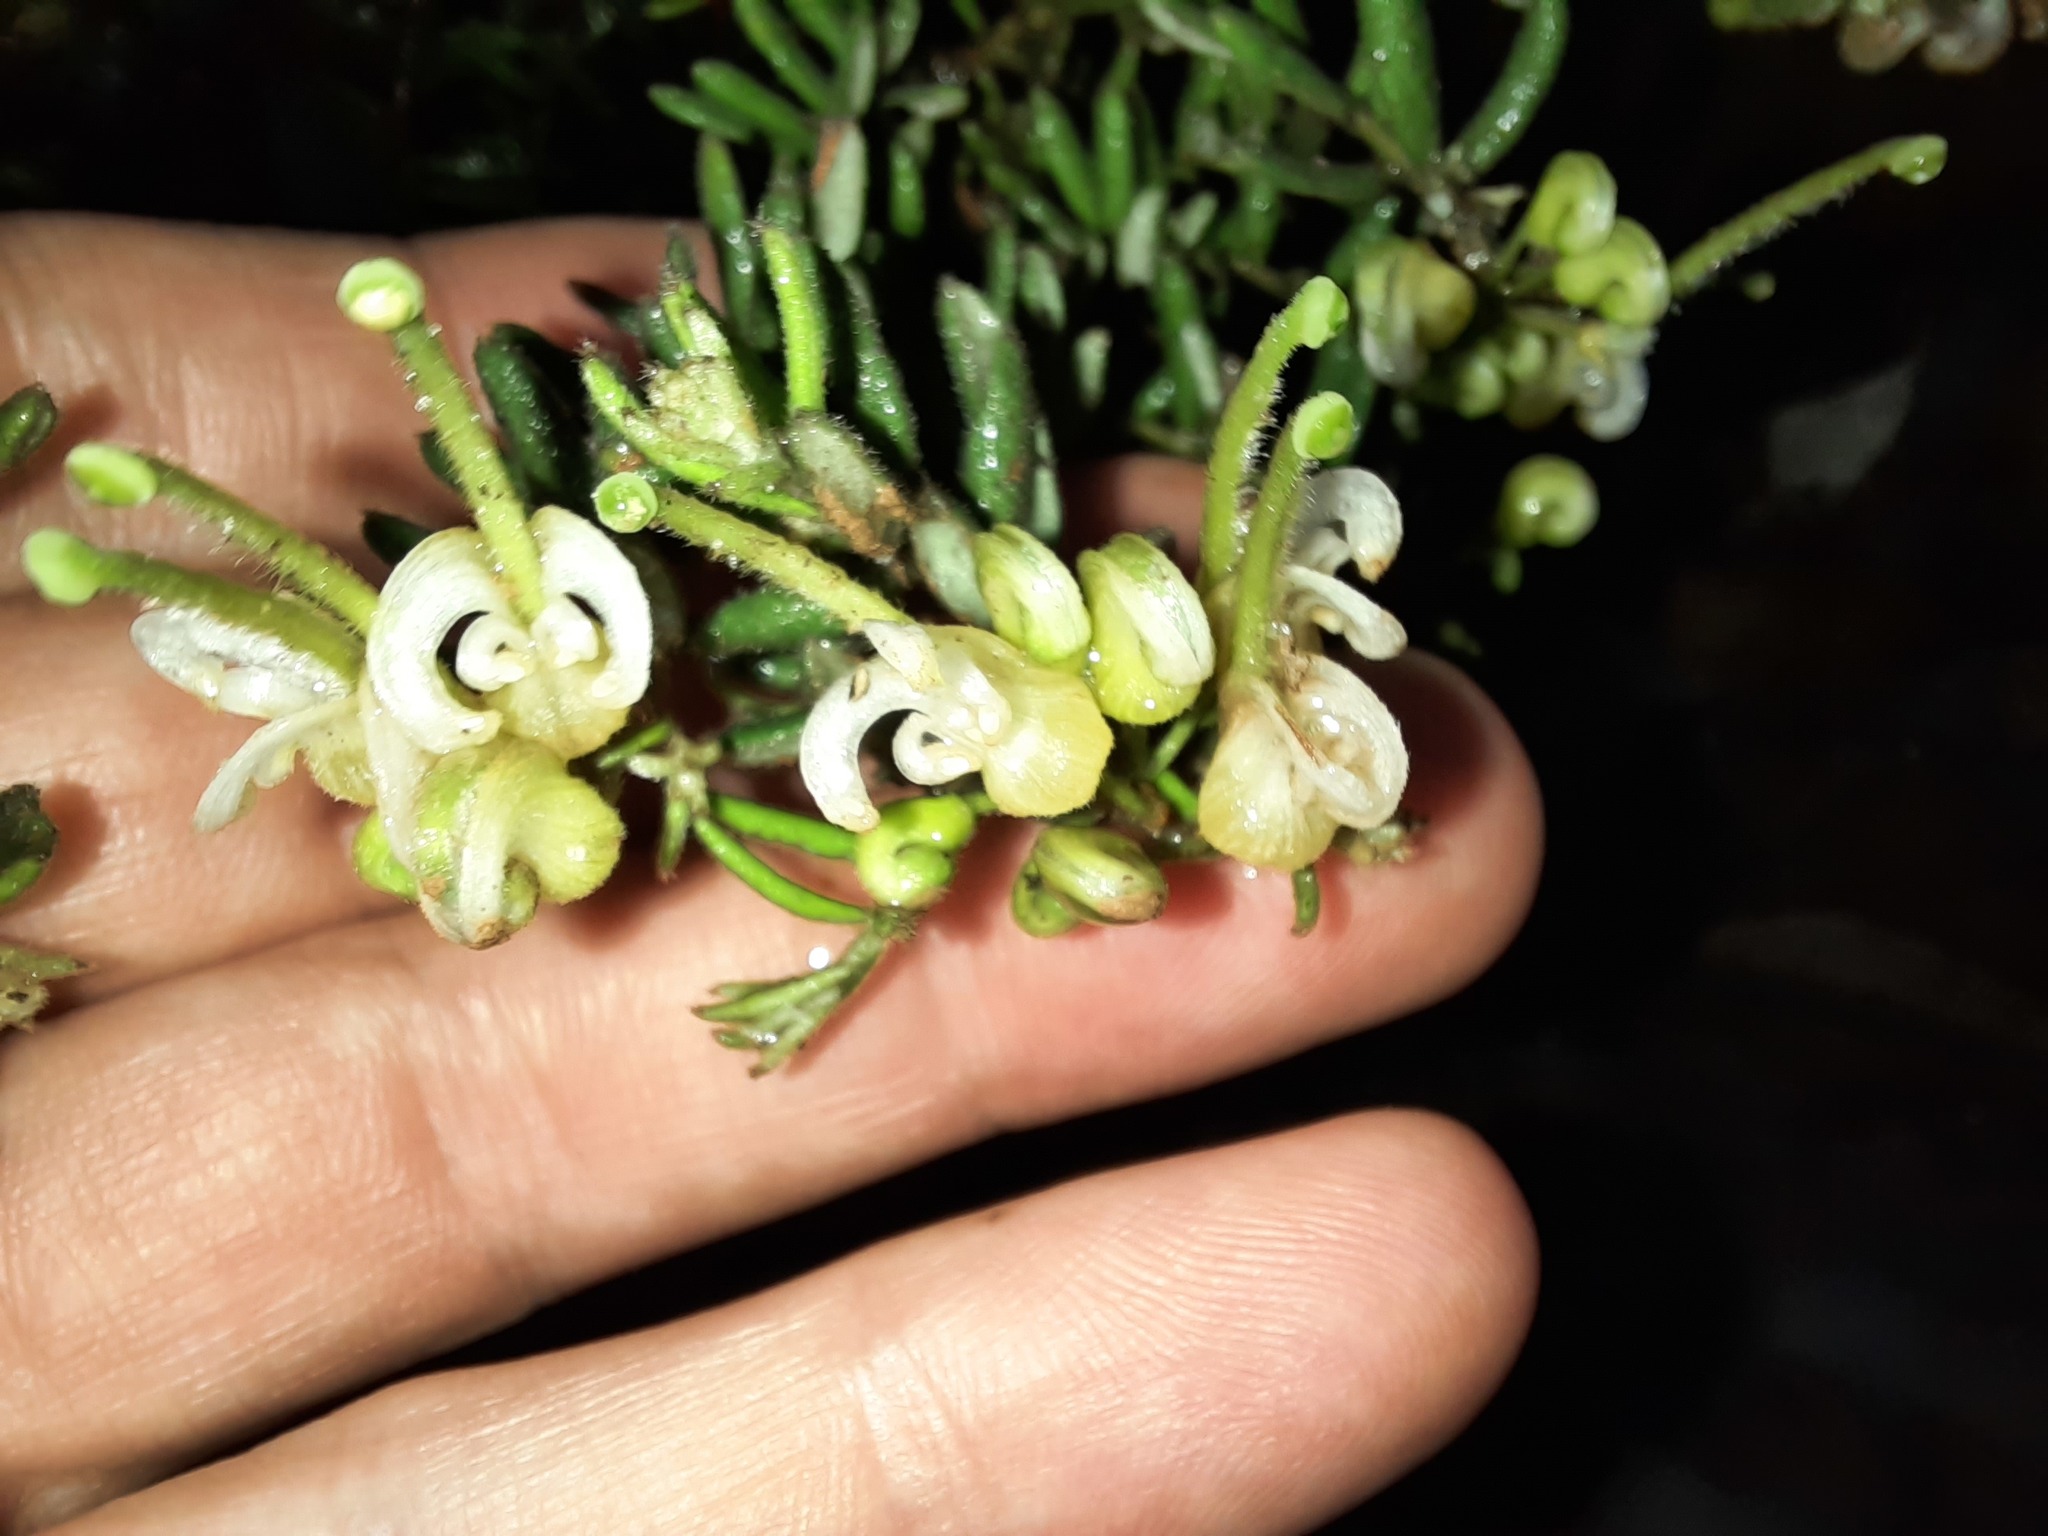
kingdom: Plantae
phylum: Tracheophyta
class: Magnoliopsida
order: Proteales
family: Proteaceae
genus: Grevillea
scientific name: Grevillea alpina
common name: Catclaws grevillea
